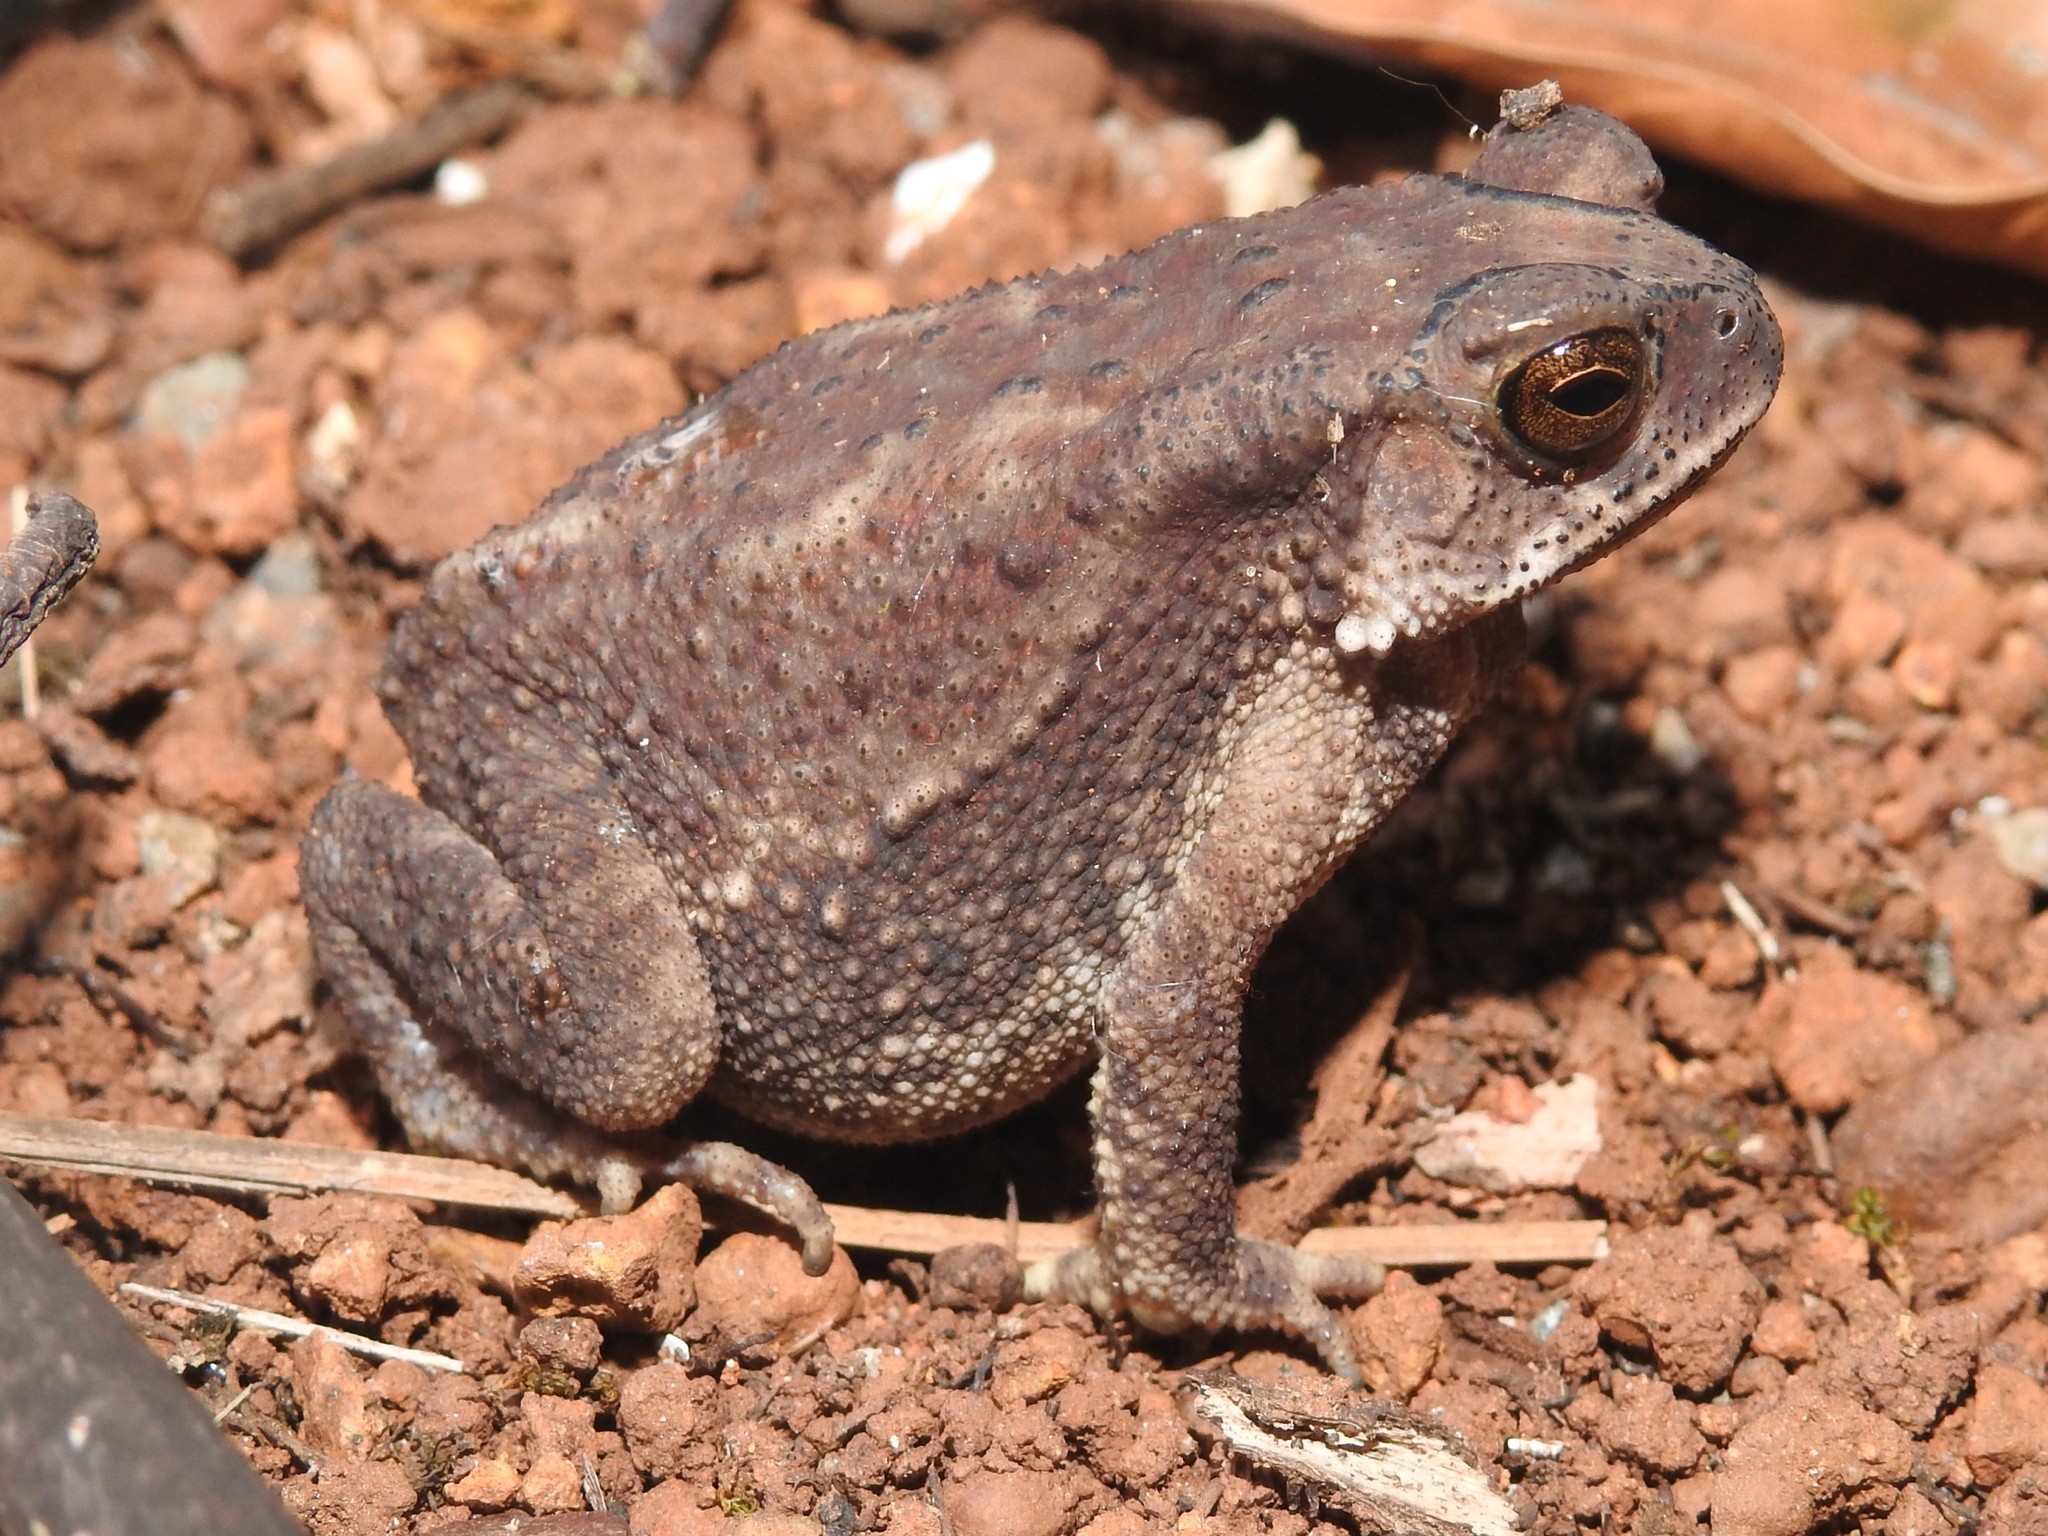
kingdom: Animalia
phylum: Chordata
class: Amphibia
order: Anura
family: Bufonidae
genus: Duttaphrynus
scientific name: Duttaphrynus melanostictus
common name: Common sunda toad
